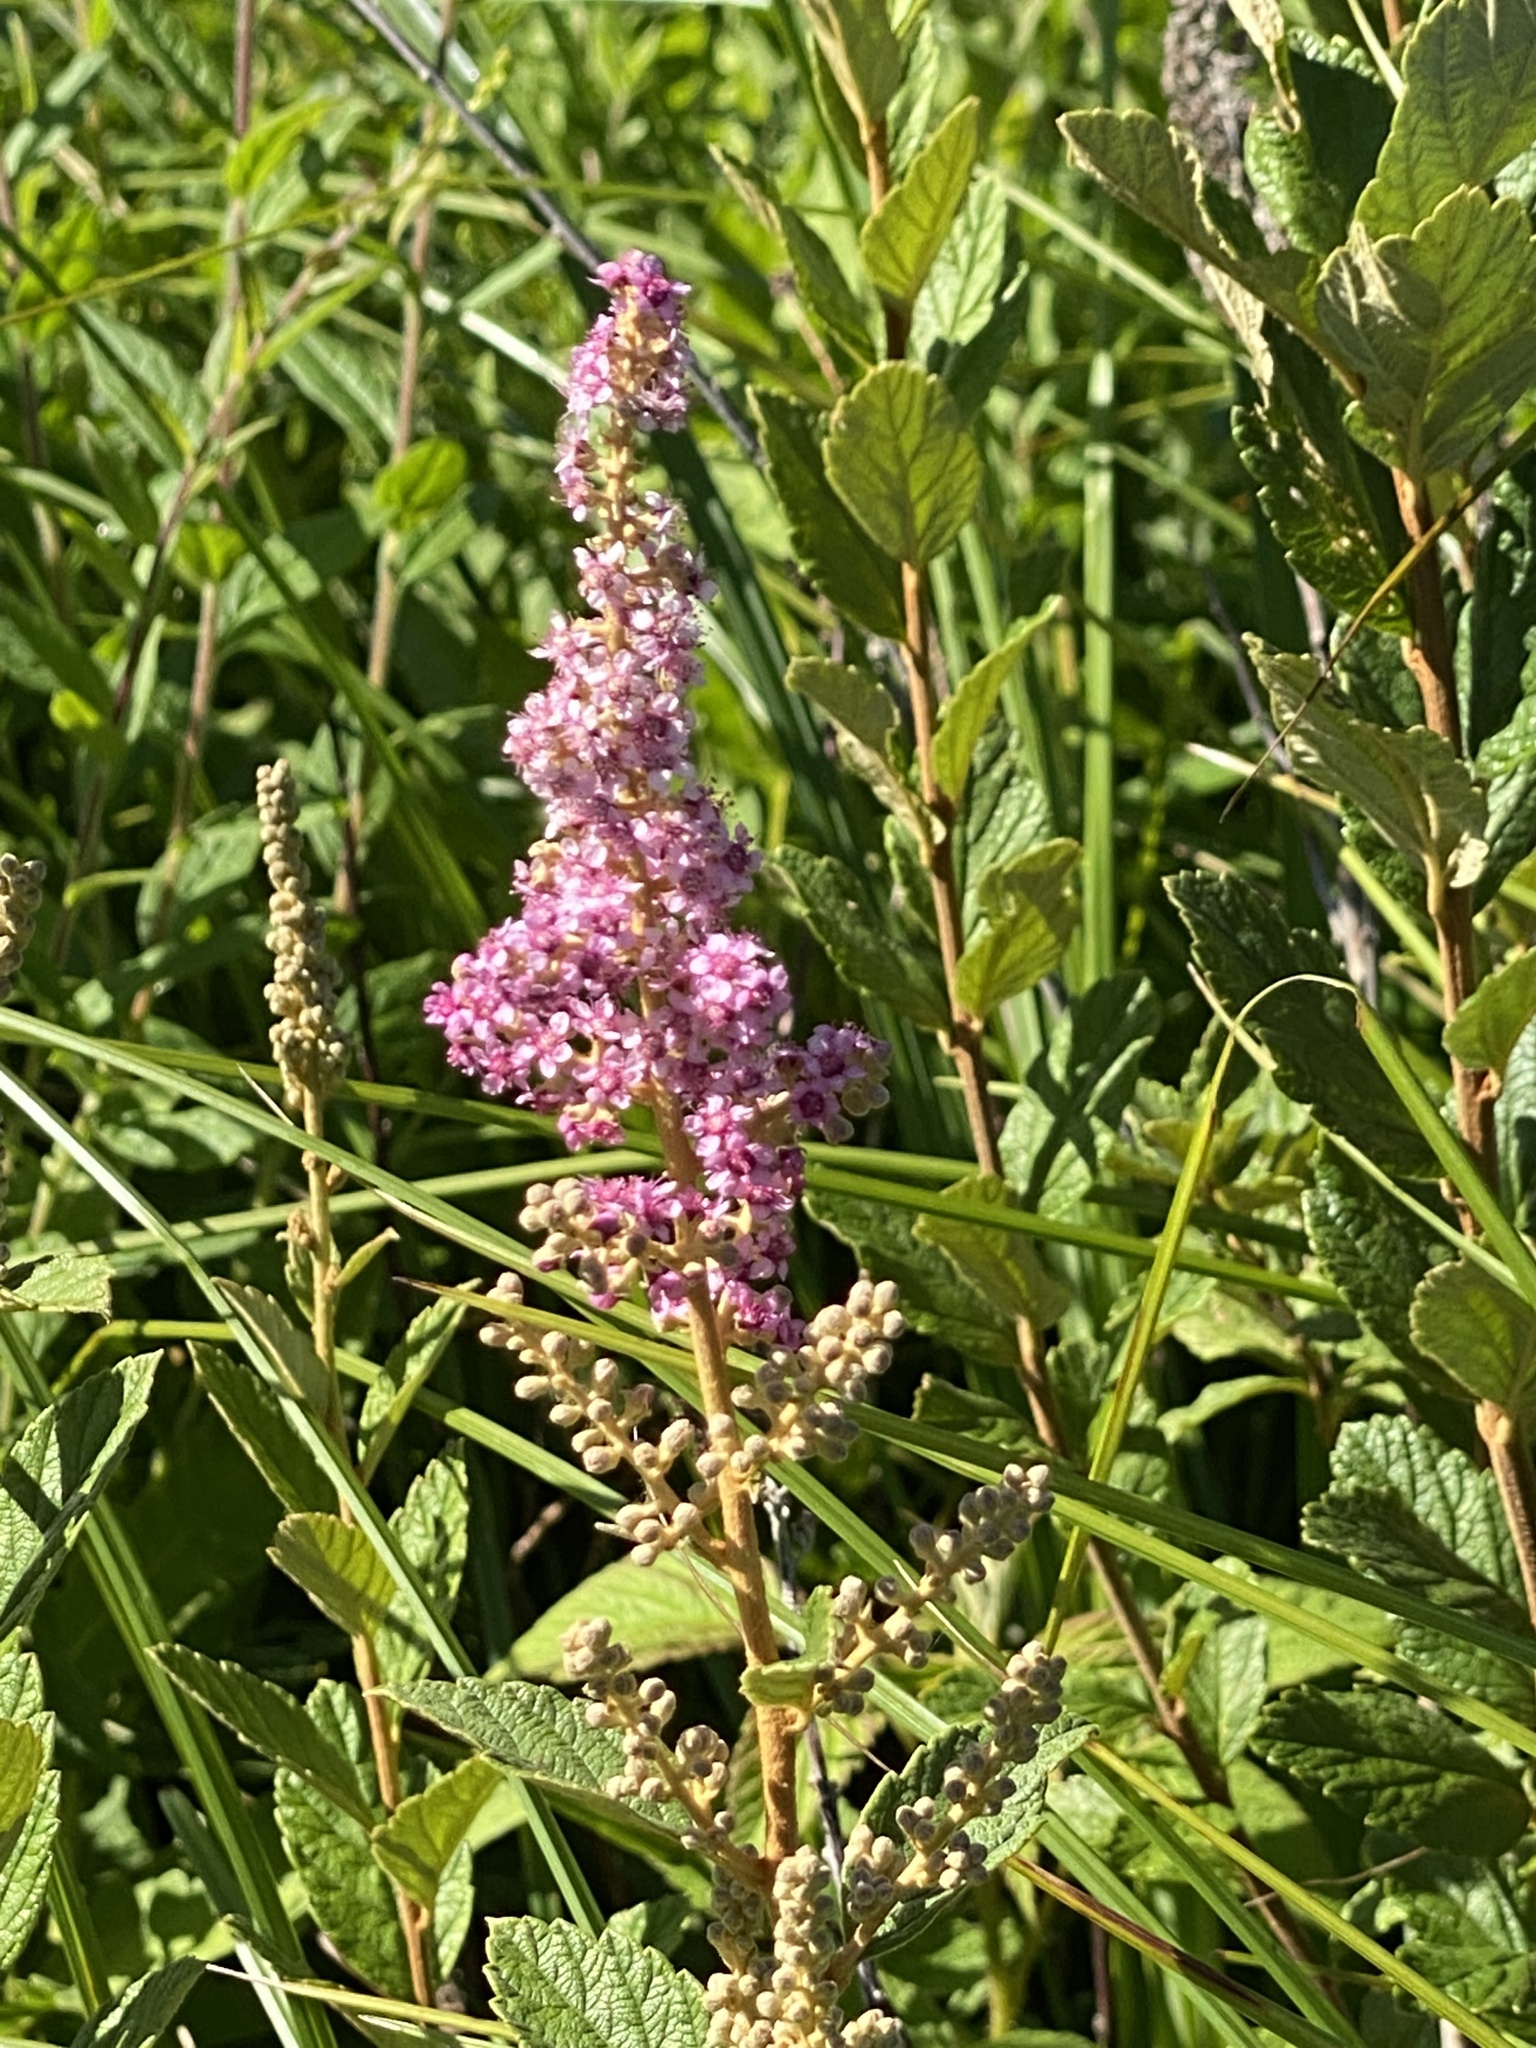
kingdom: Plantae
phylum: Tracheophyta
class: Magnoliopsida
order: Rosales
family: Rosaceae
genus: Spiraea
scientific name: Spiraea tomentosa
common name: Hardhack
